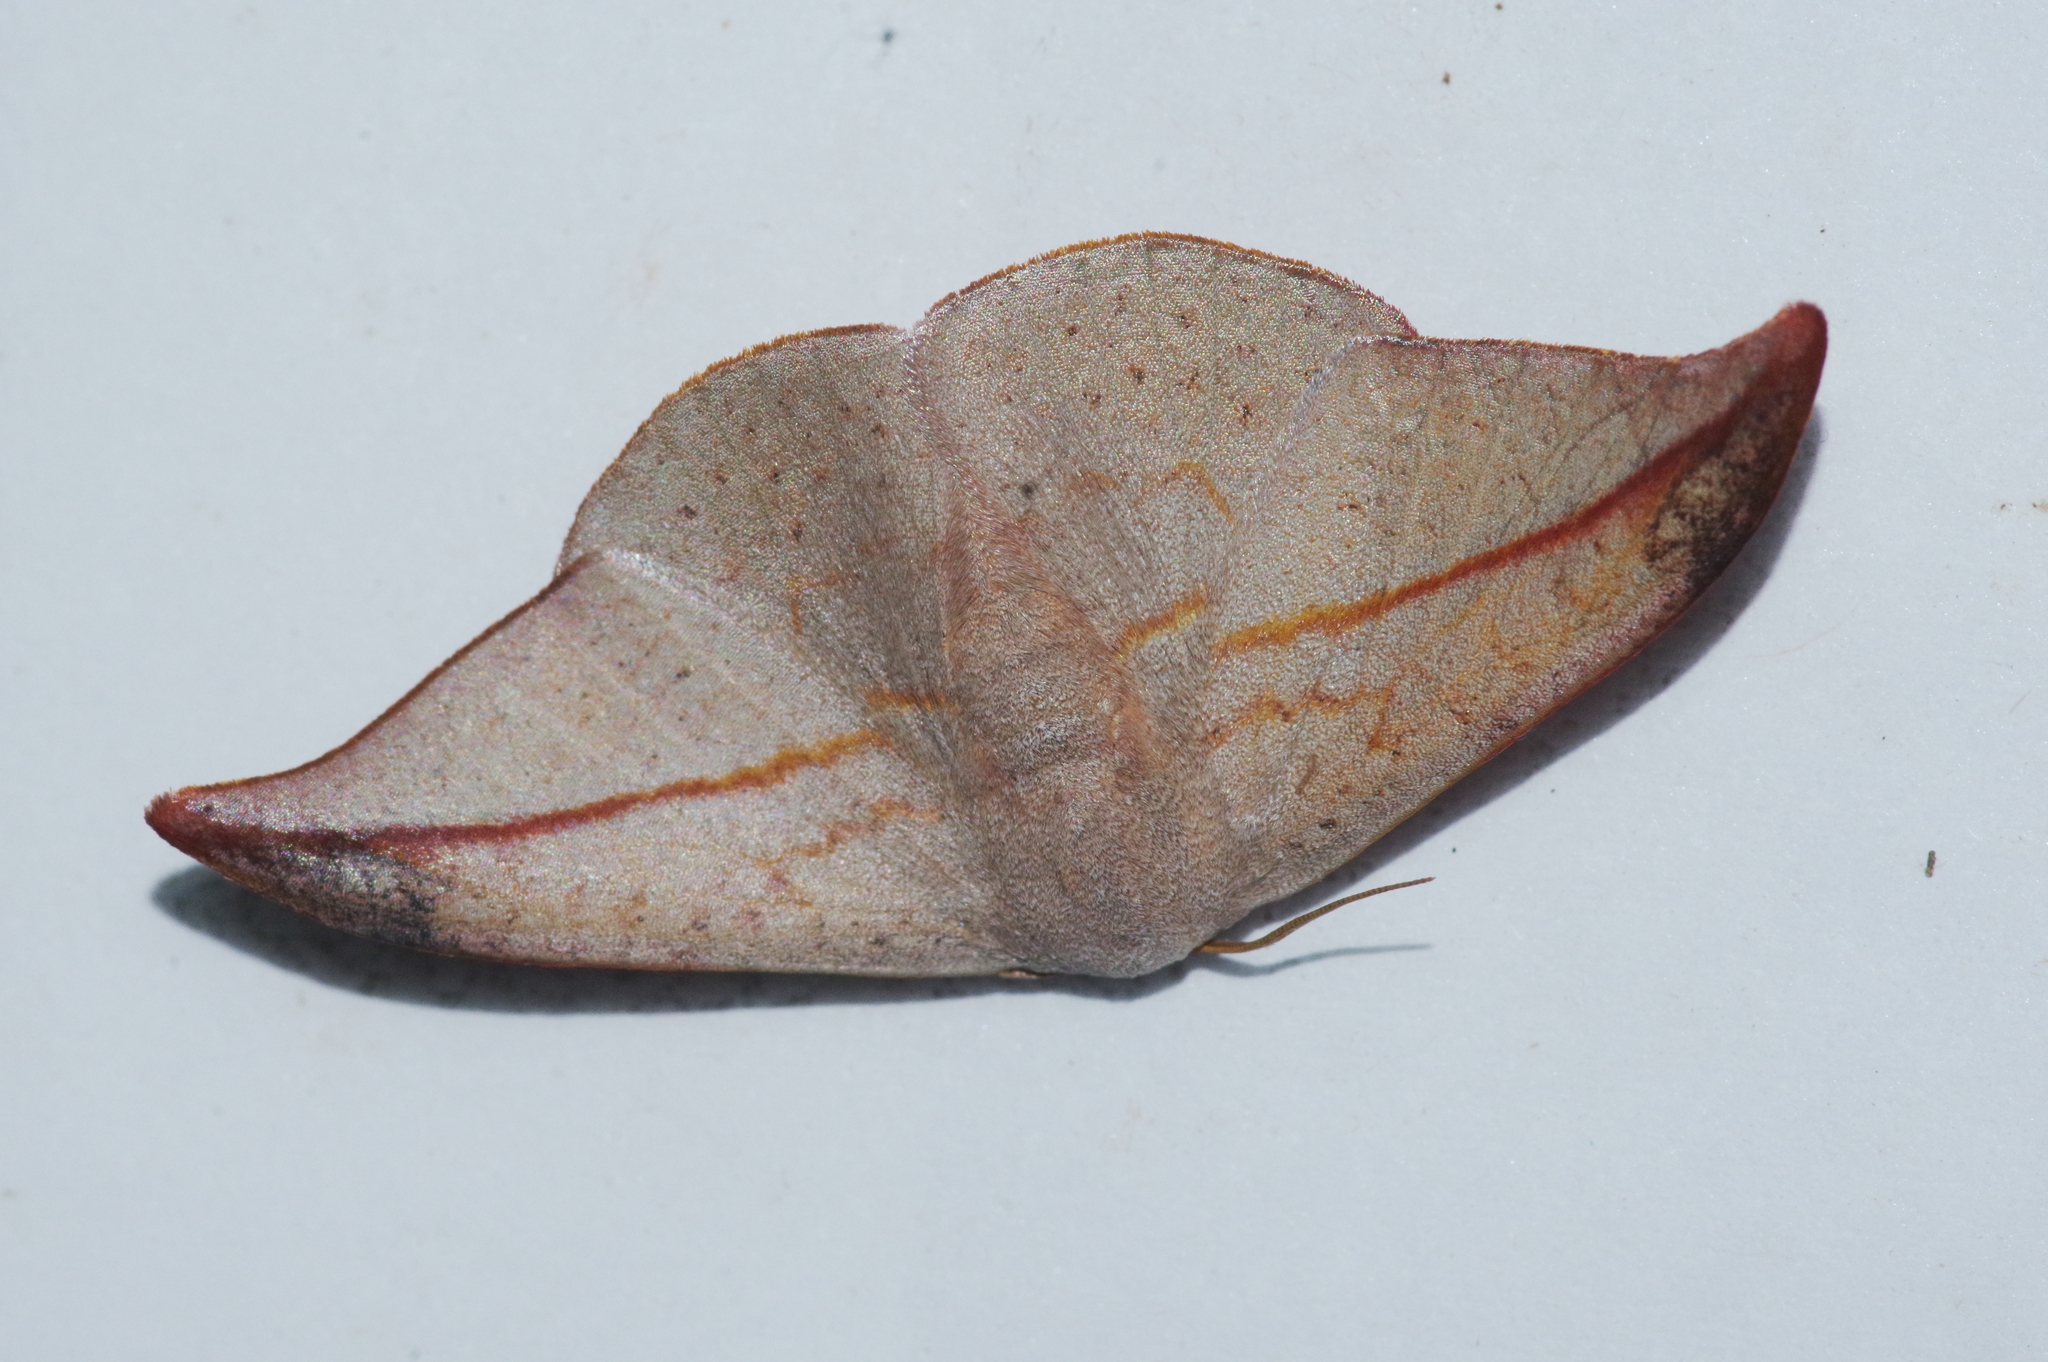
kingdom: Animalia
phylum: Arthropoda
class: Insecta
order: Lepidoptera
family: Drepanidae
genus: Oreta
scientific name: Oreta insignis
